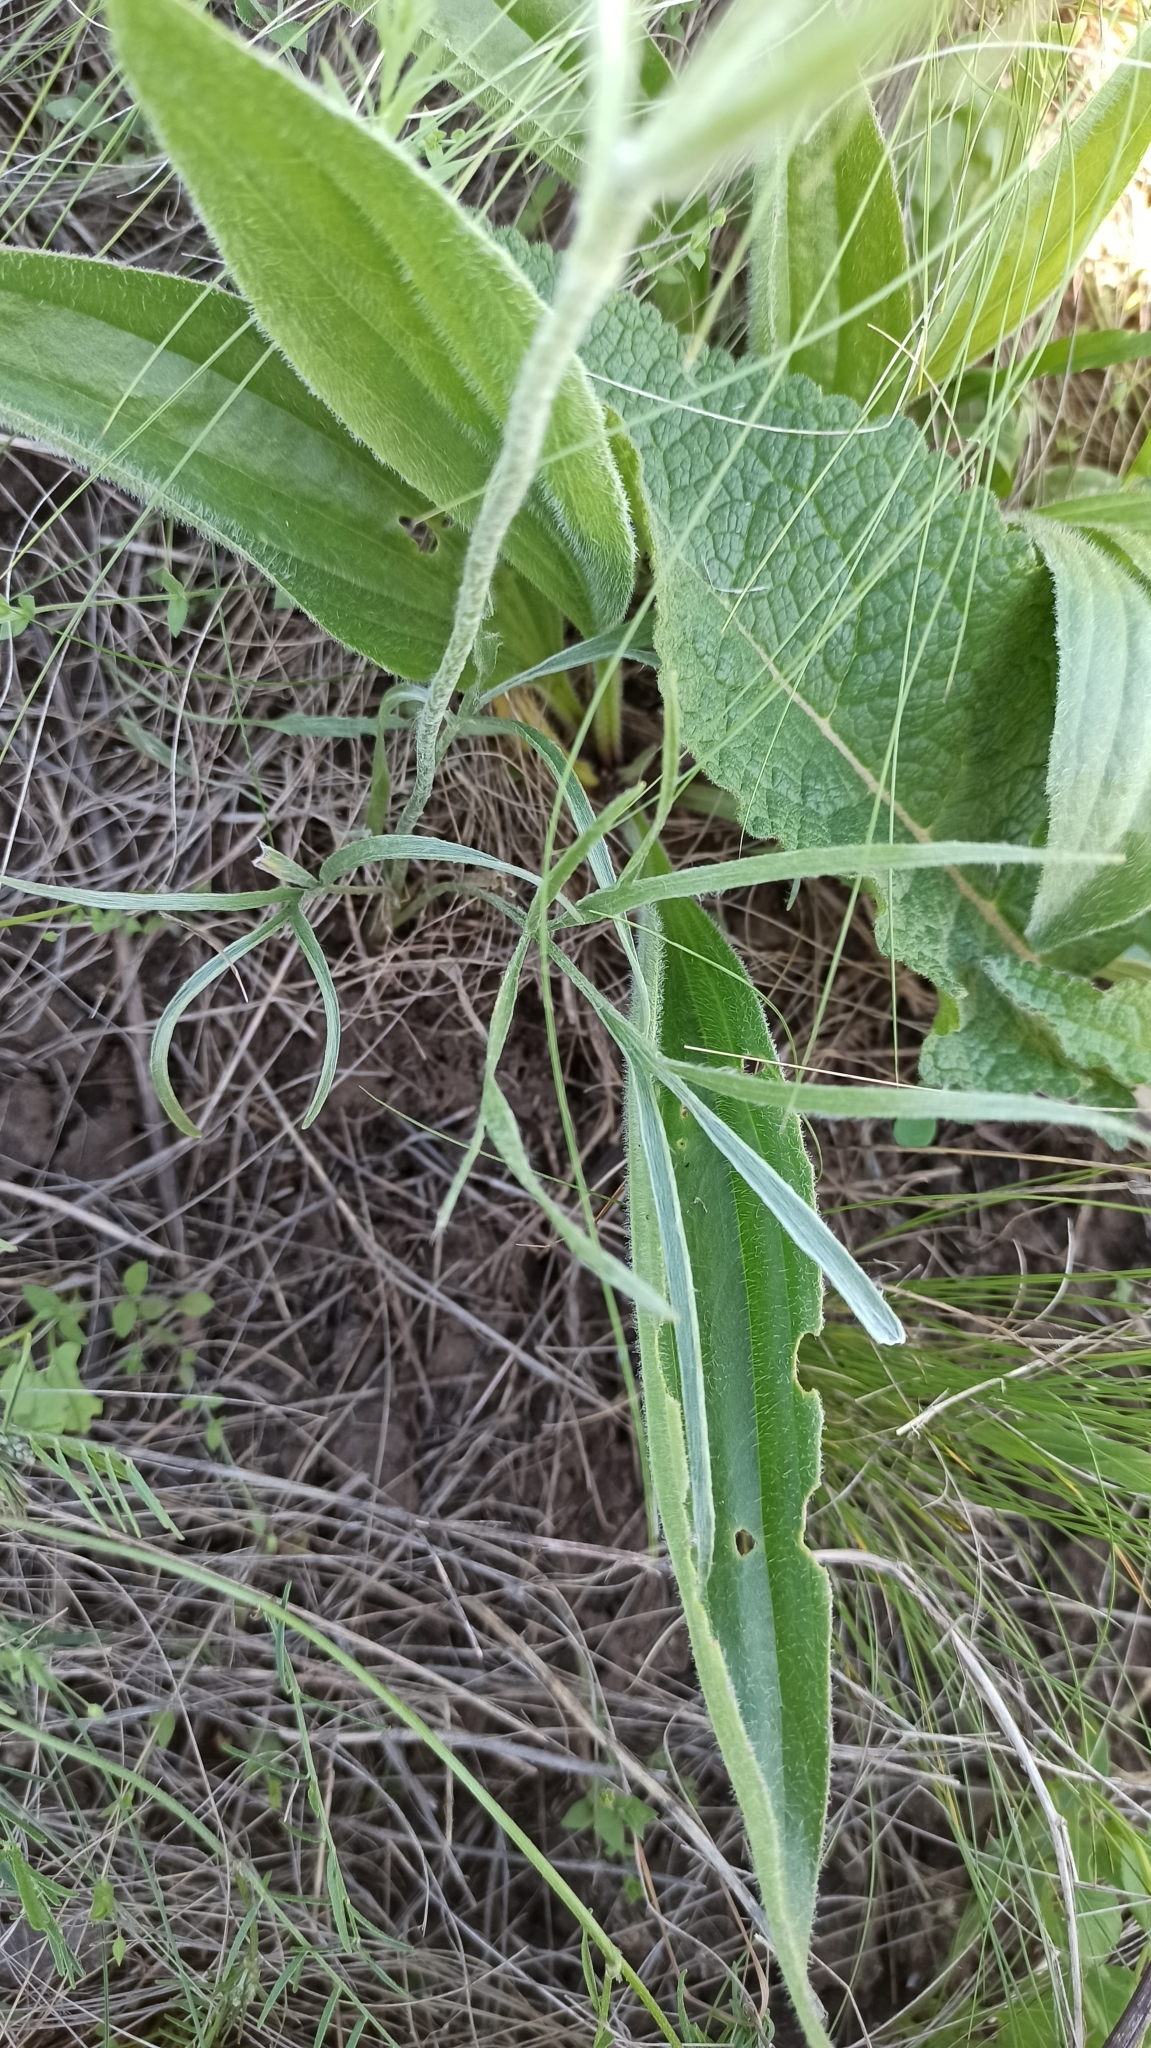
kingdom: Plantae
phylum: Tracheophyta
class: Magnoliopsida
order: Ranunculales
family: Ranunculaceae
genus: Ranunculus
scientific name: Ranunculus illyricus
